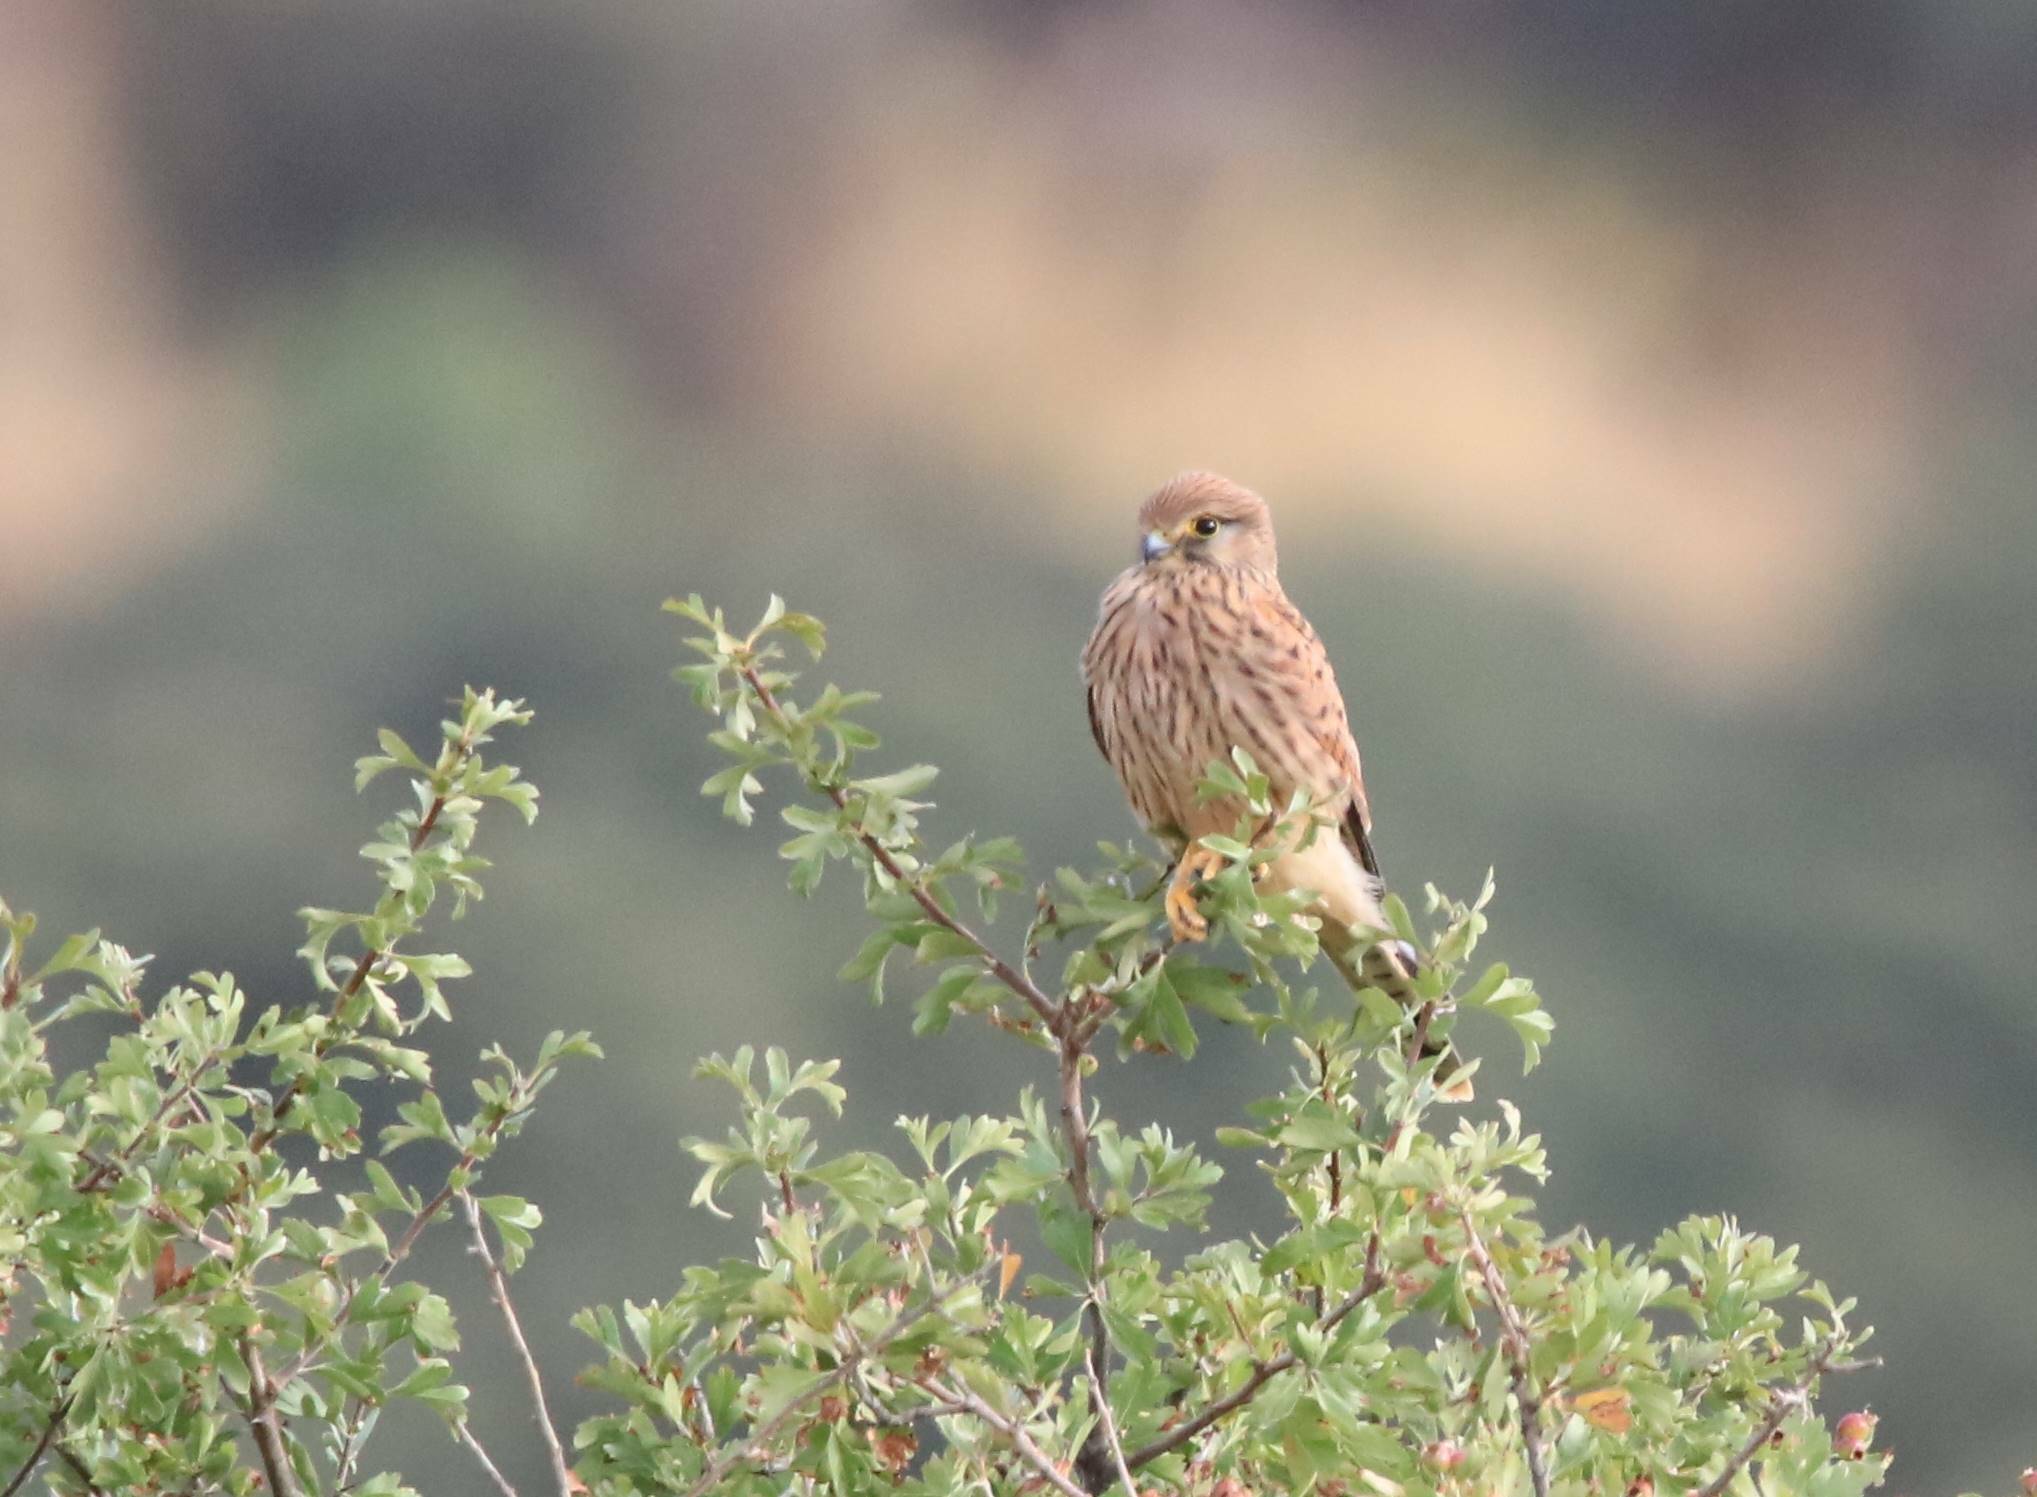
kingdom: Animalia
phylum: Chordata
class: Aves
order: Falconiformes
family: Falconidae
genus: Falco
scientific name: Falco tinnunculus
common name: Common kestrel
